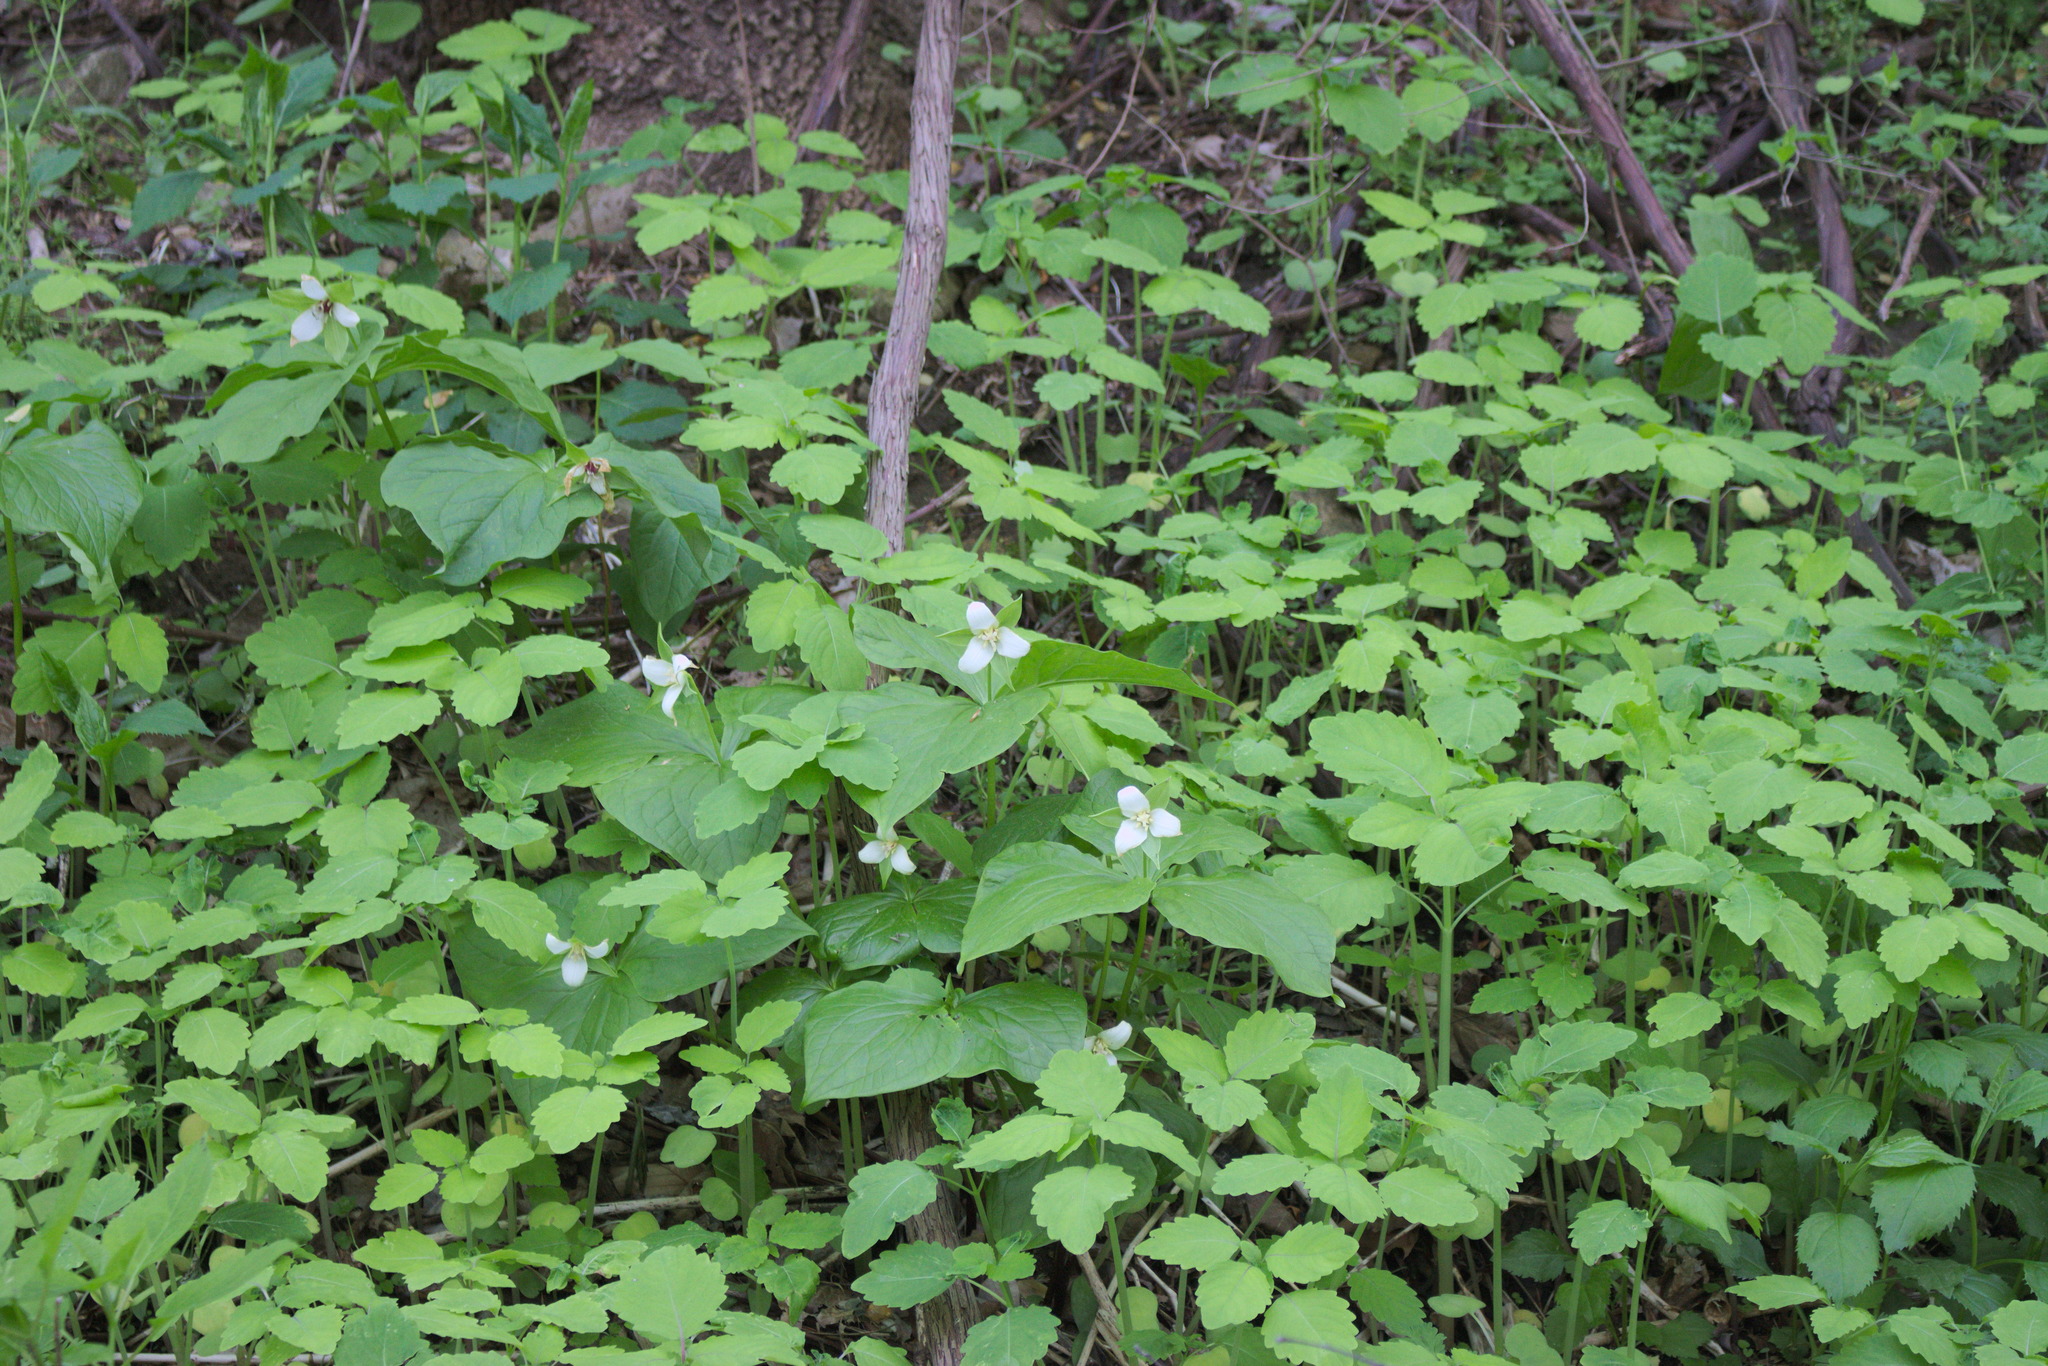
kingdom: Plantae
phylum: Tracheophyta
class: Liliopsida
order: Liliales
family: Melanthiaceae
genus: Trillium
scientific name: Trillium flexipes
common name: Drooping trillium
